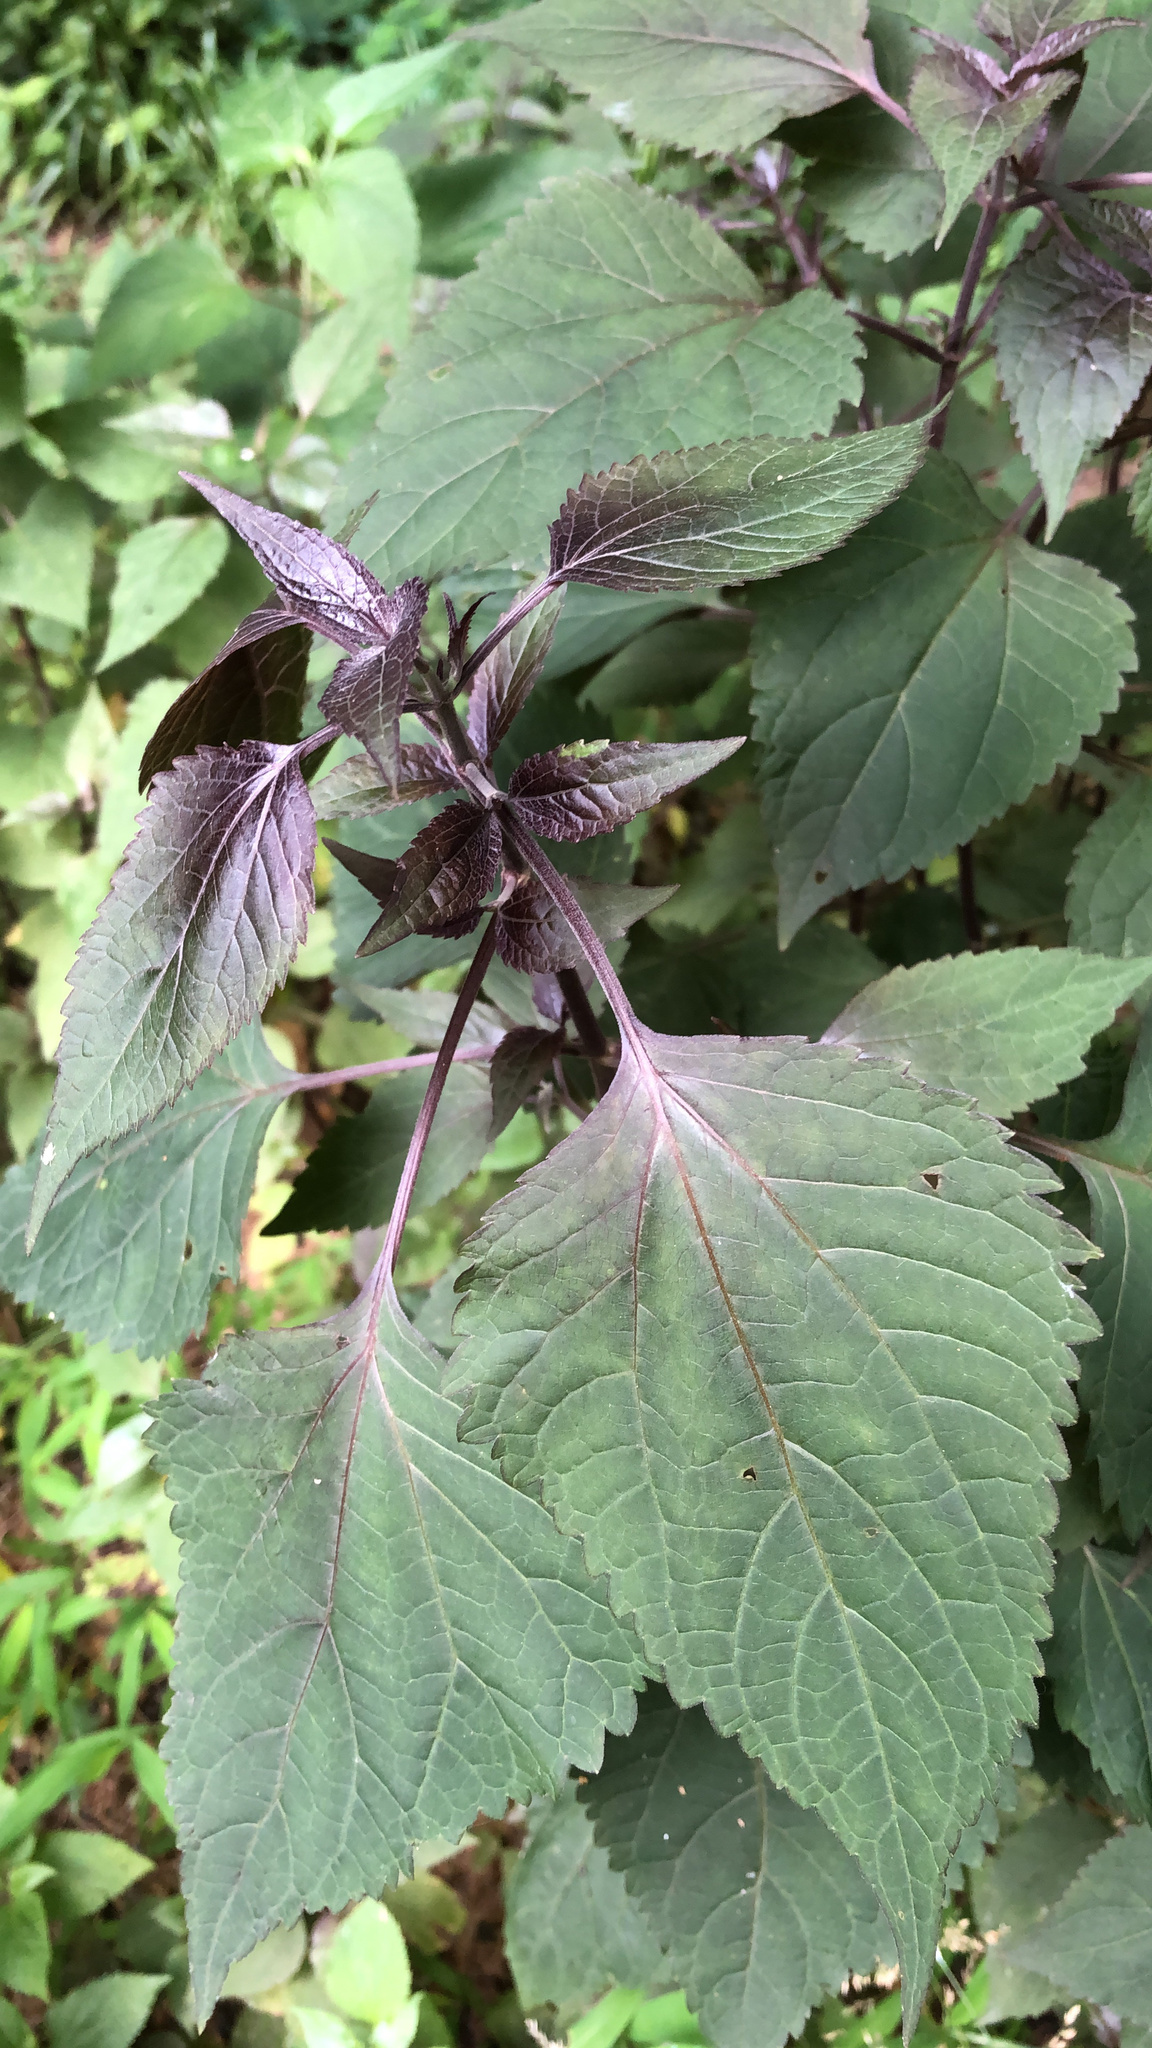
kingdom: Plantae
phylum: Tracheophyta
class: Magnoliopsida
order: Lamiales
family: Lamiaceae
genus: Perilla
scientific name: Perilla frutescens
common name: Perilla
